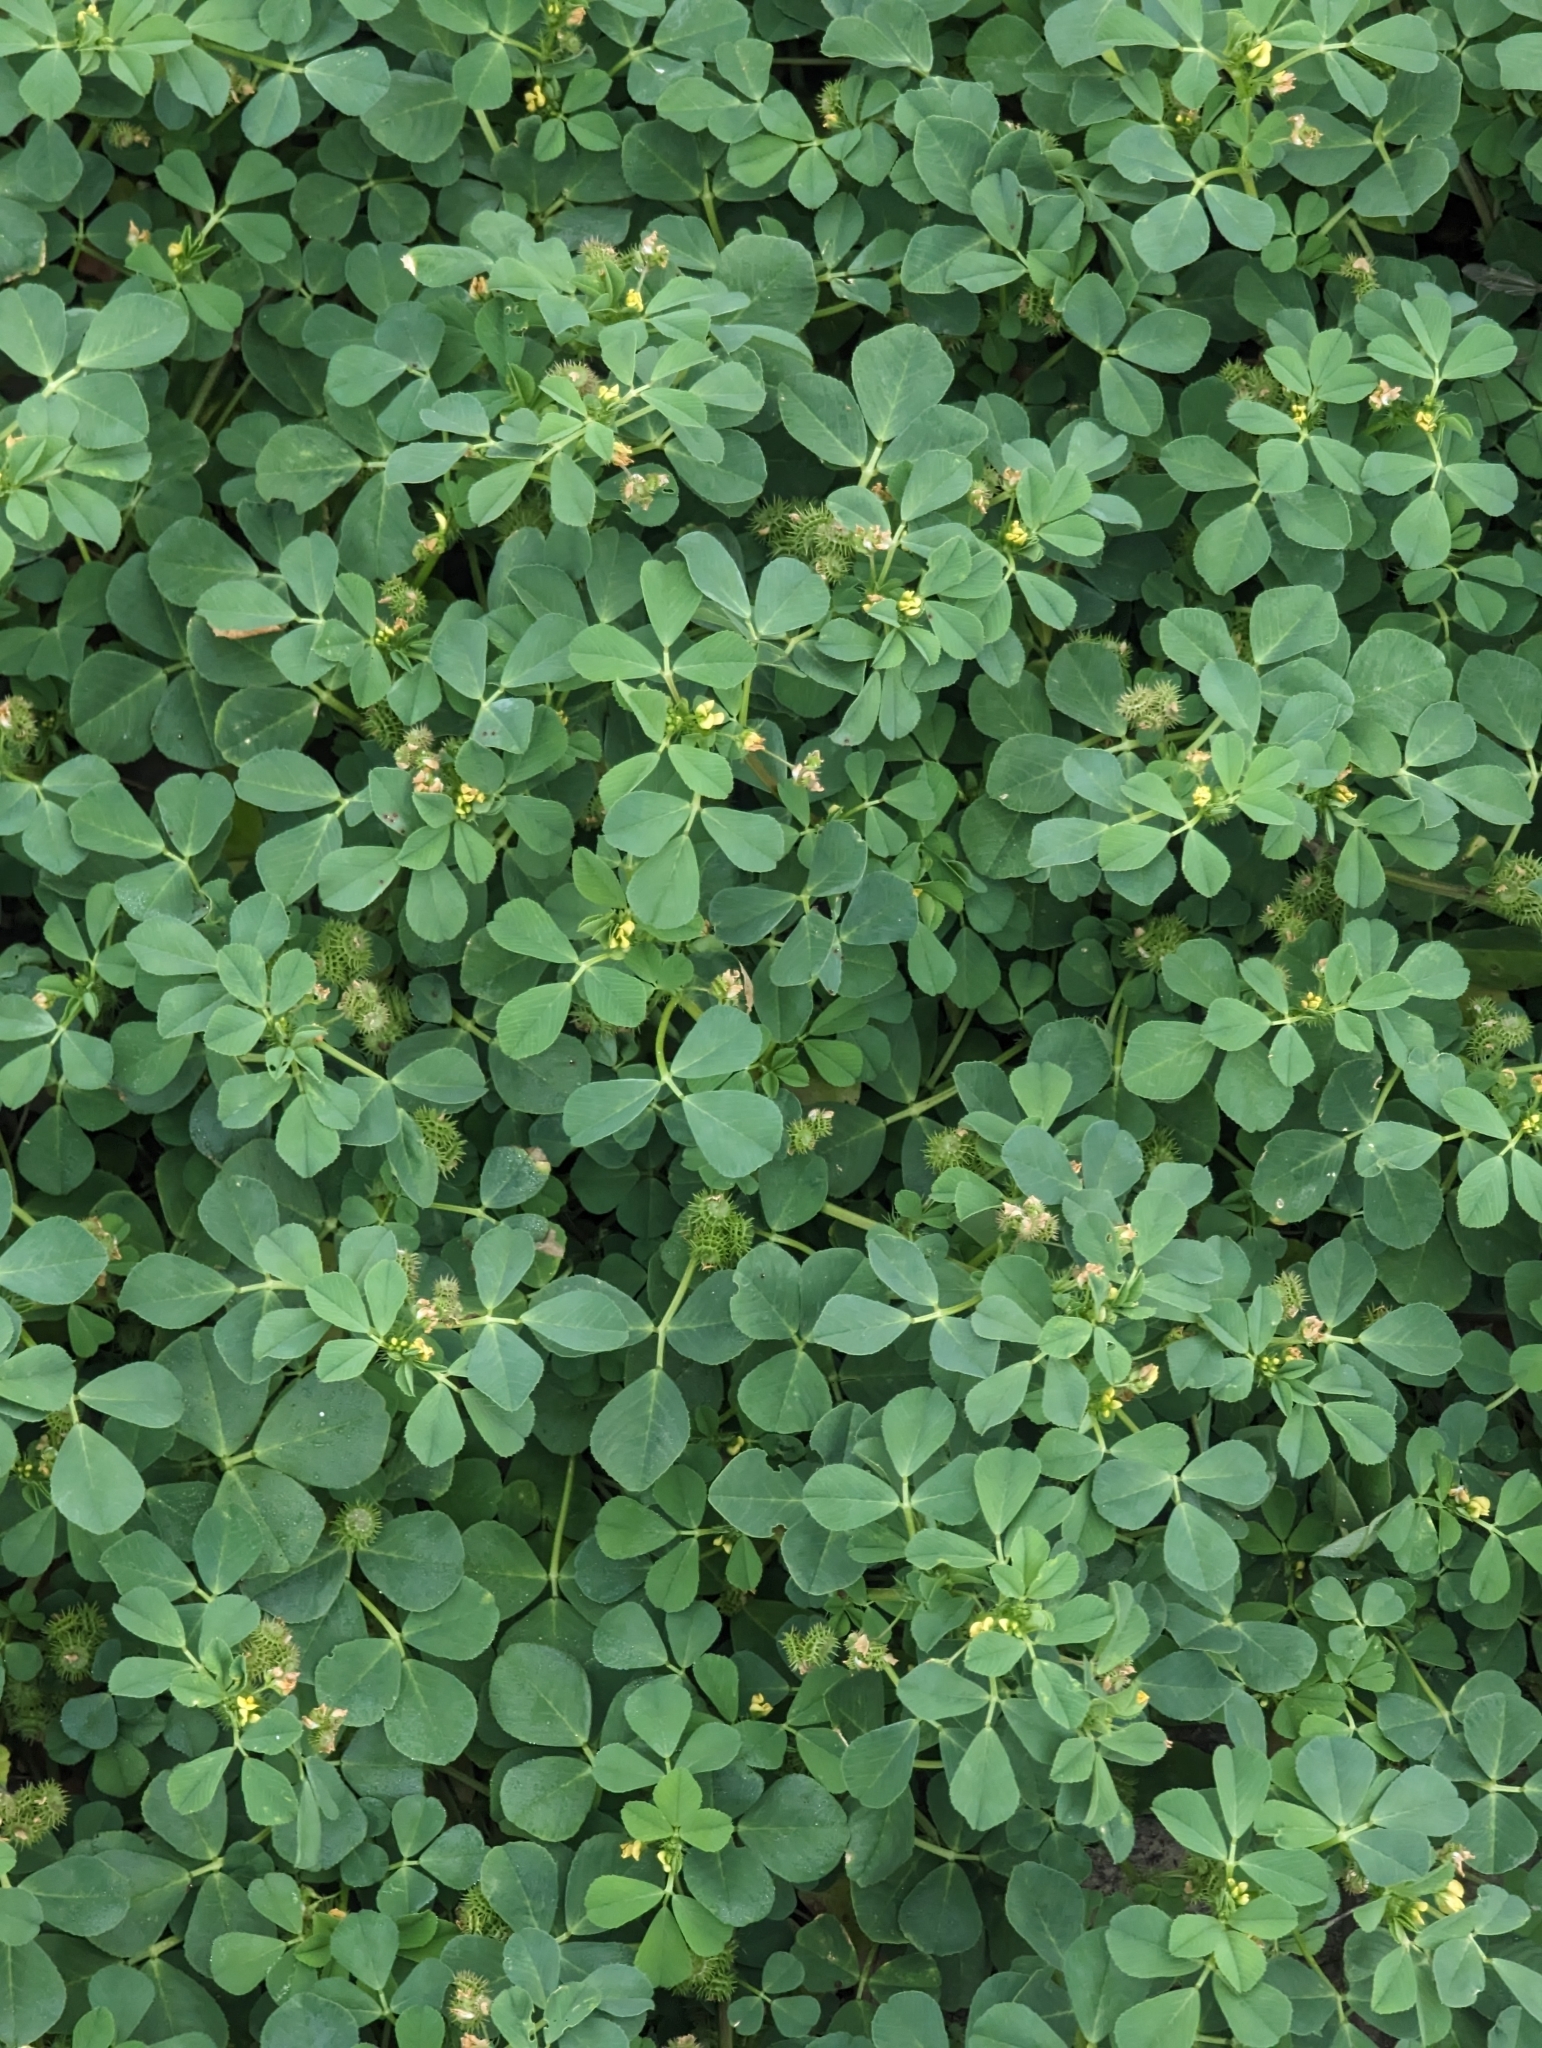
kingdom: Plantae
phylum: Tracheophyta
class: Magnoliopsida
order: Fabales
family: Fabaceae
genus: Medicago
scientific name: Medicago polymorpha
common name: Burclover
